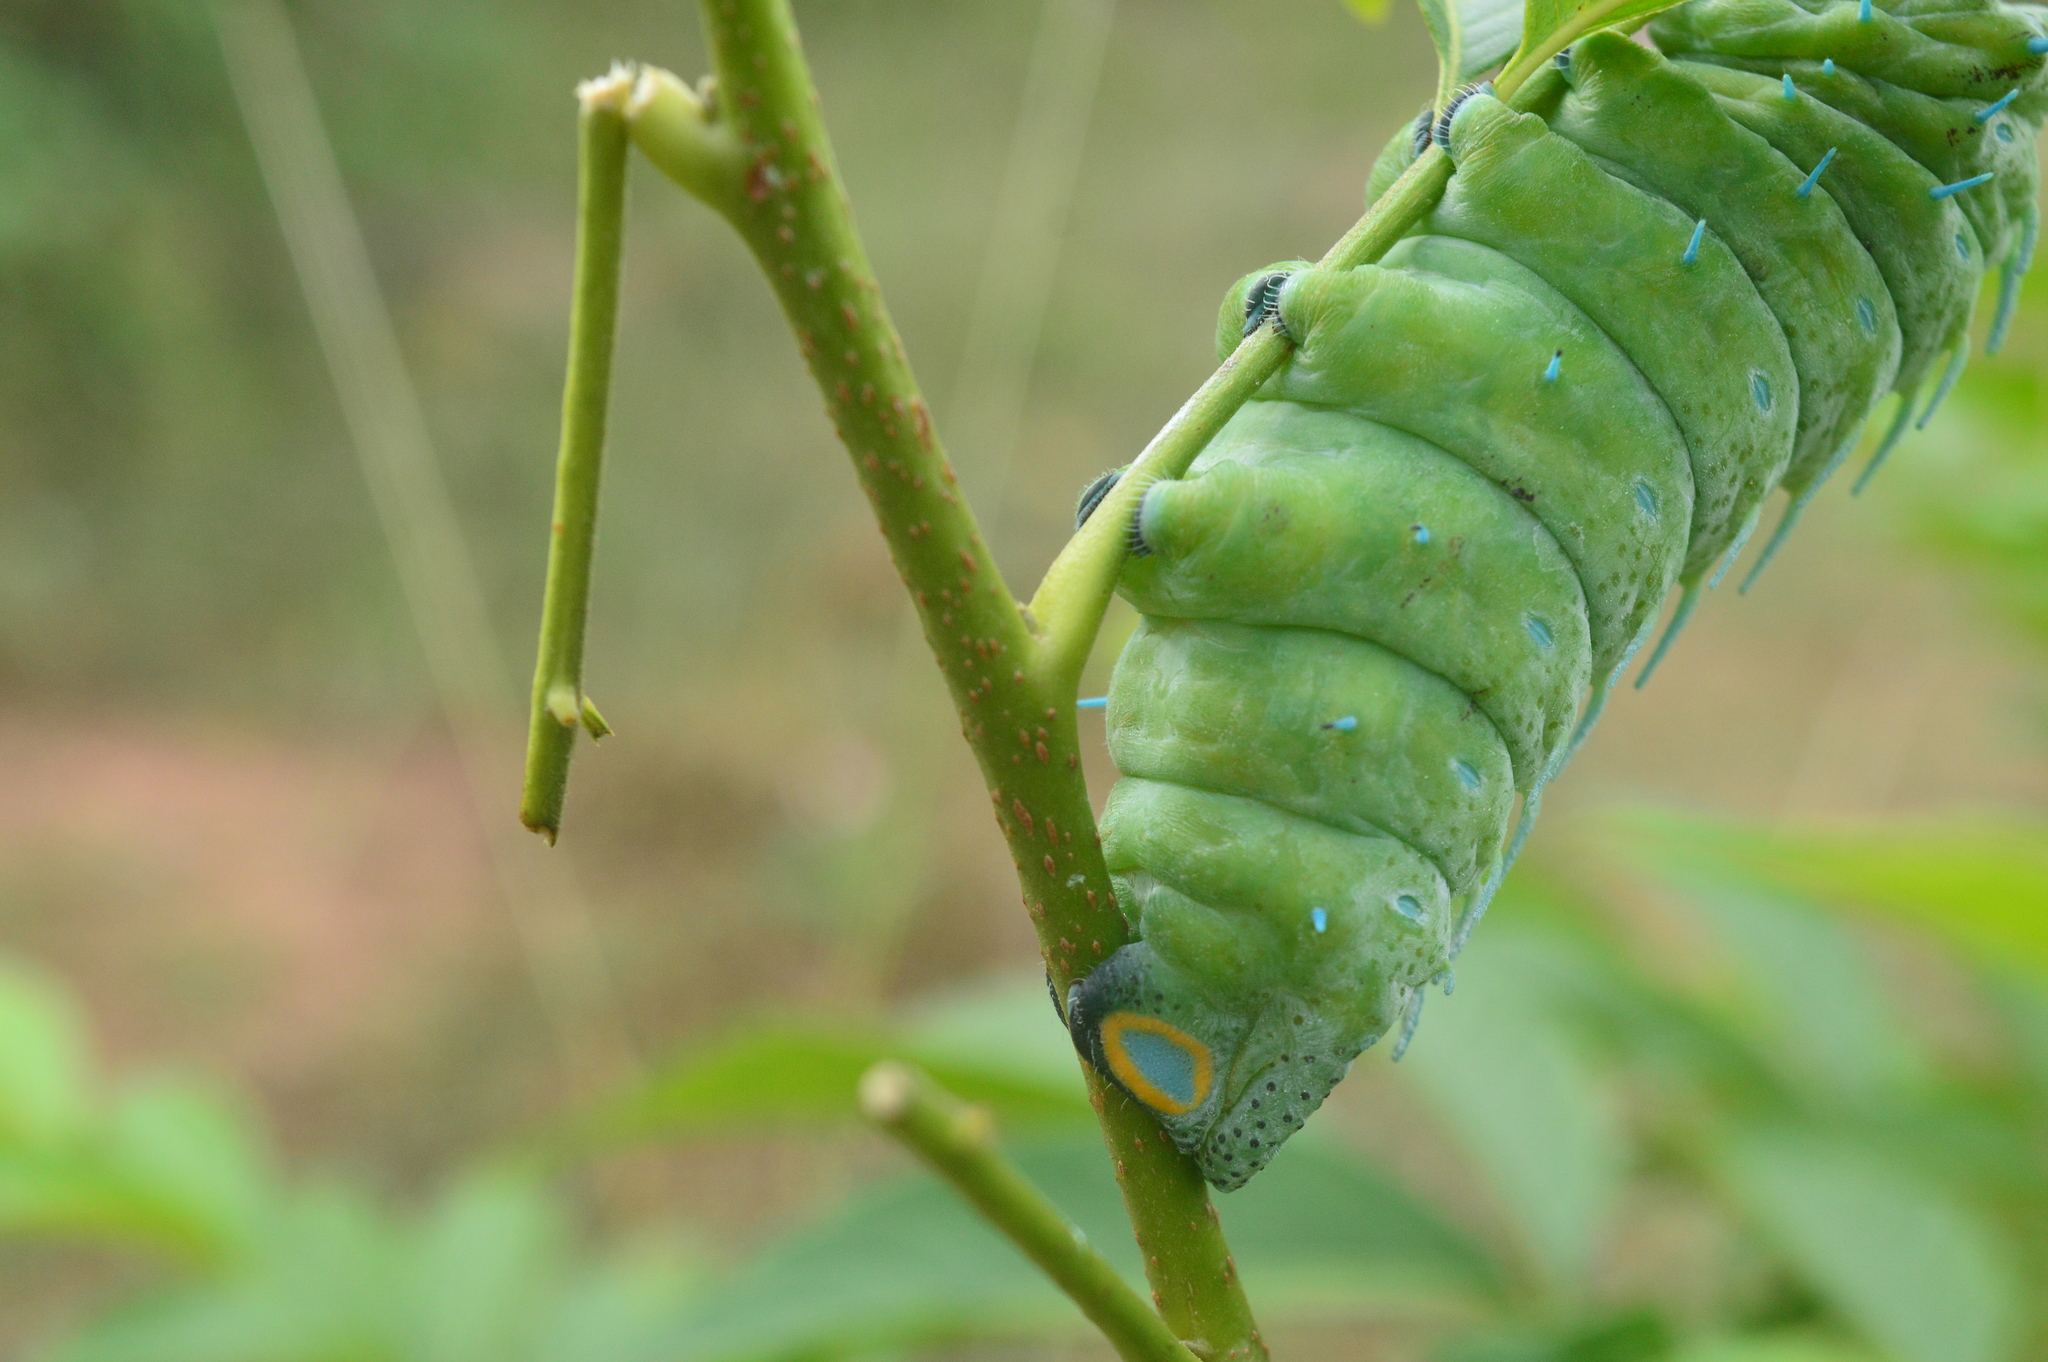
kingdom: Animalia
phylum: Arthropoda
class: Insecta
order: Lepidoptera
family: Saturniidae
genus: Attacus
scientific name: Attacus taprobanis
